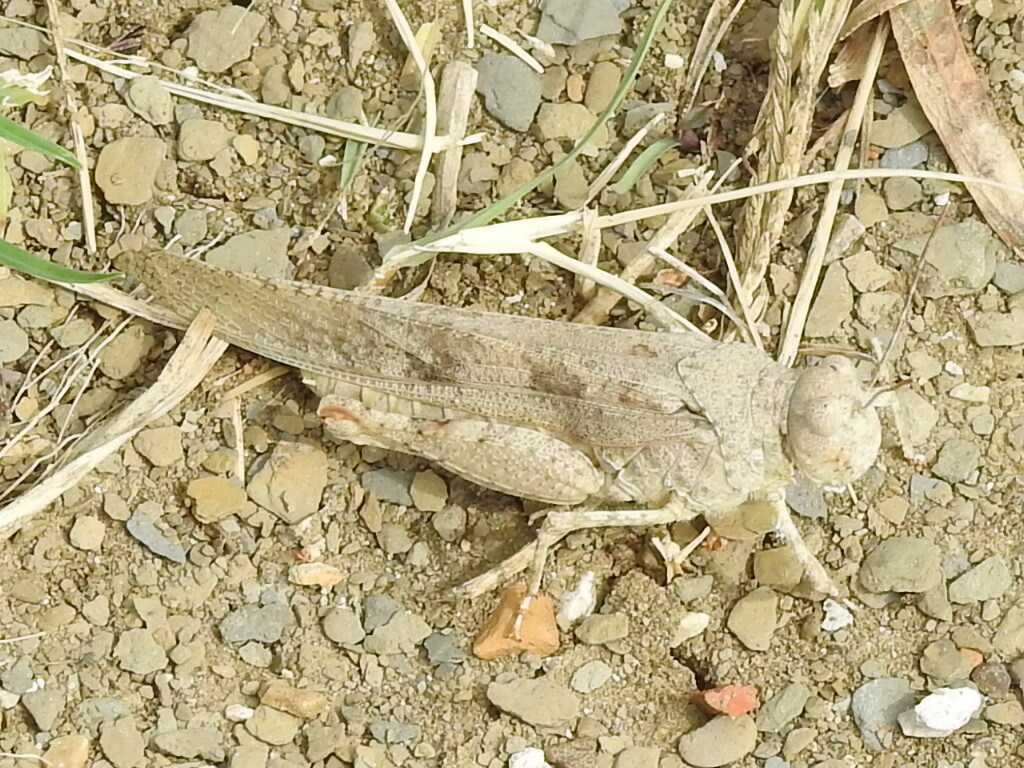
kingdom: Animalia
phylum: Arthropoda
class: Insecta
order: Orthoptera
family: Acrididae
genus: Trimerotropis
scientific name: Trimerotropis maritima
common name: Seaside locust
